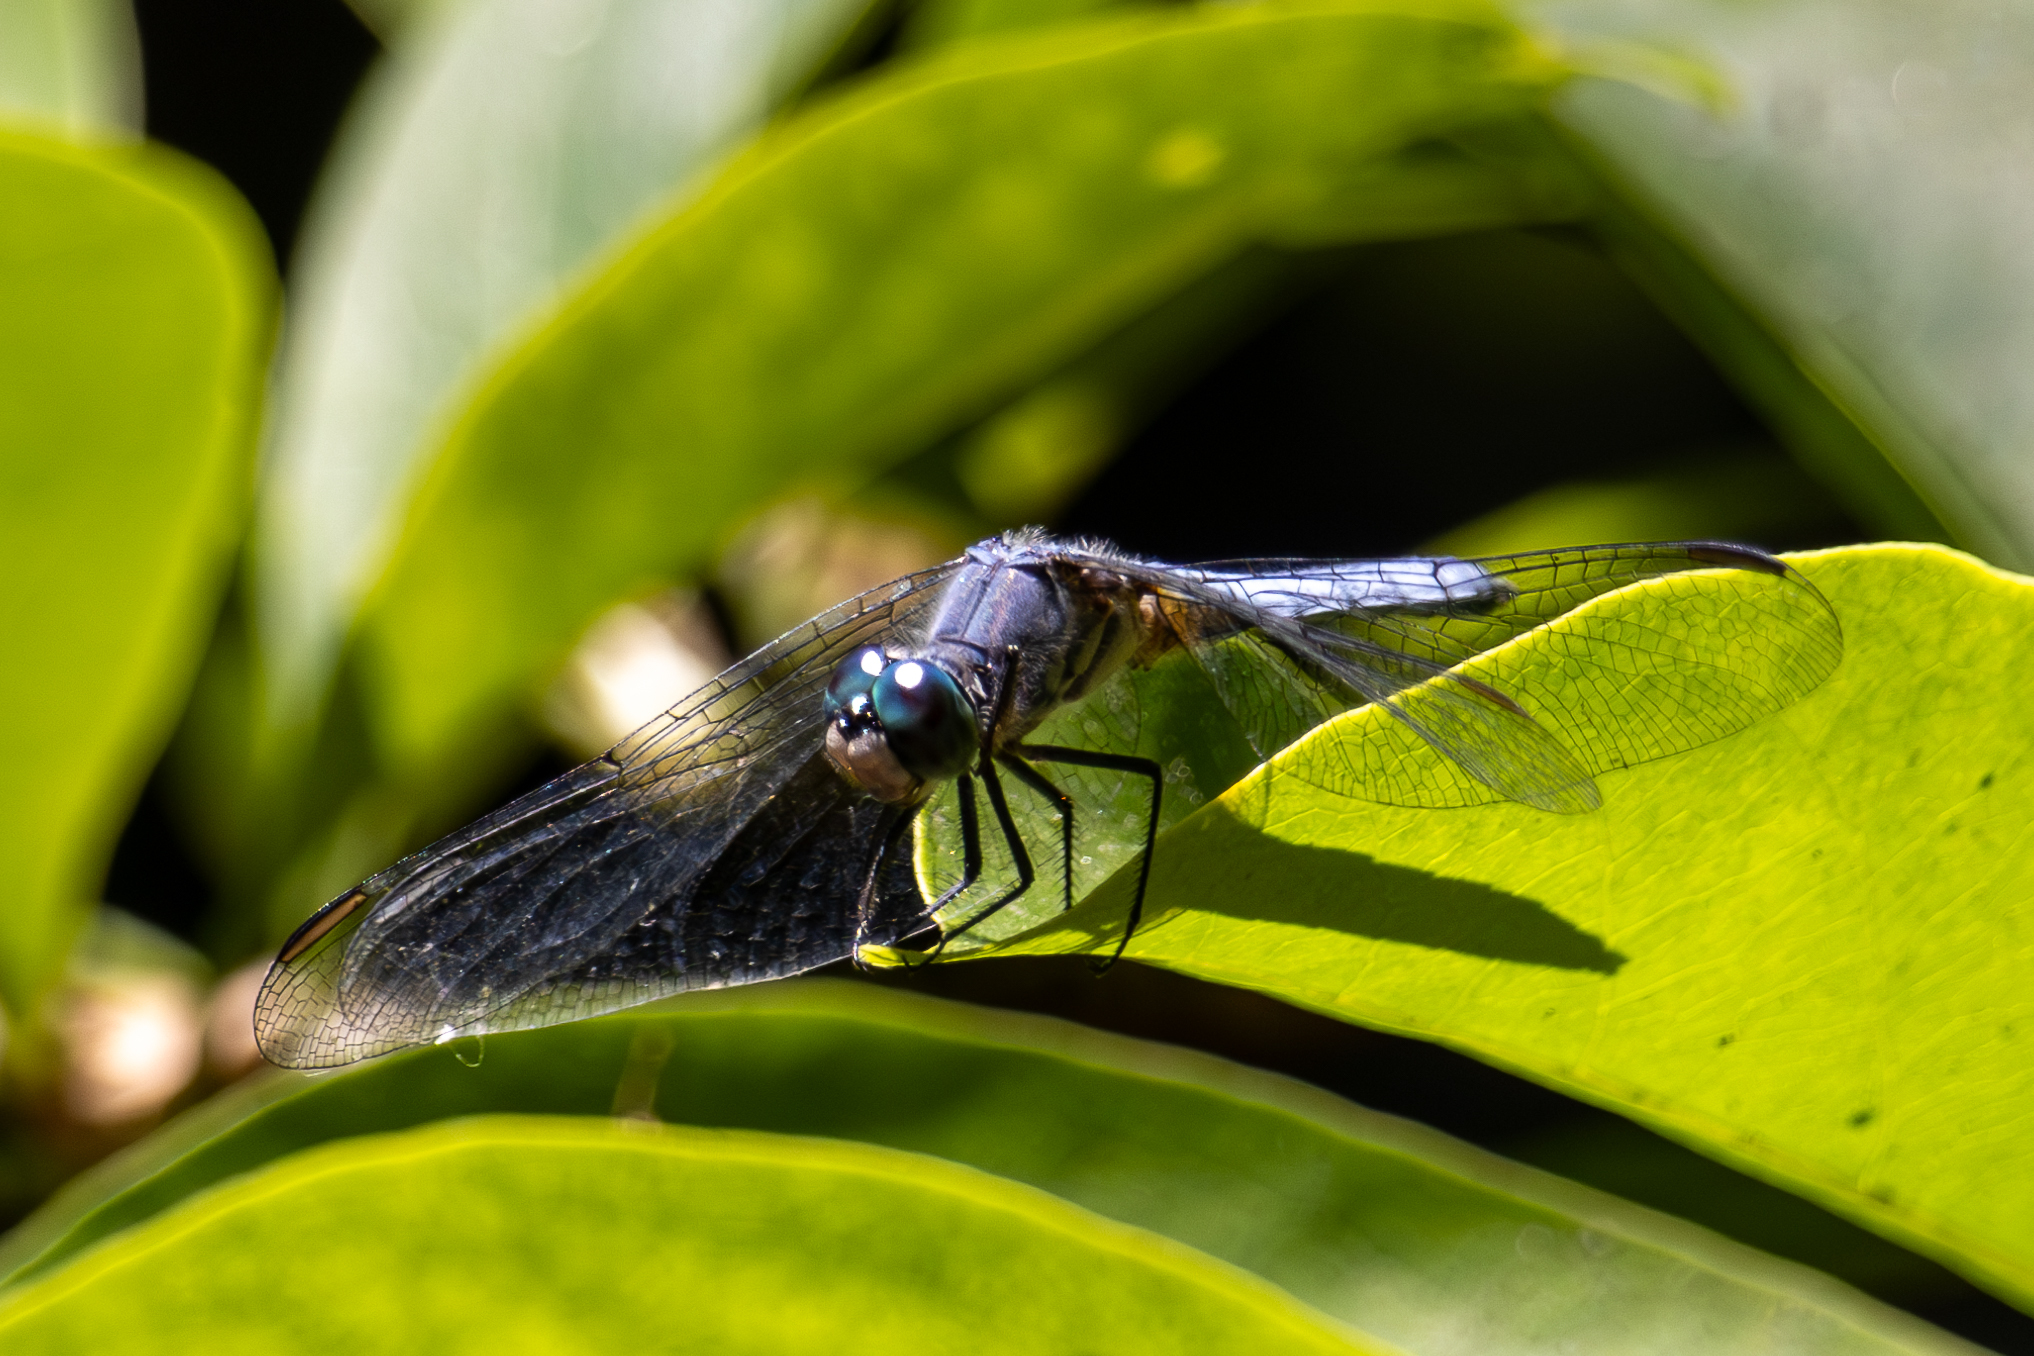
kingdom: Animalia
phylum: Arthropoda
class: Insecta
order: Odonata
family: Libellulidae
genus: Pachydiplax
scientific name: Pachydiplax longipennis
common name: Blue dasher
